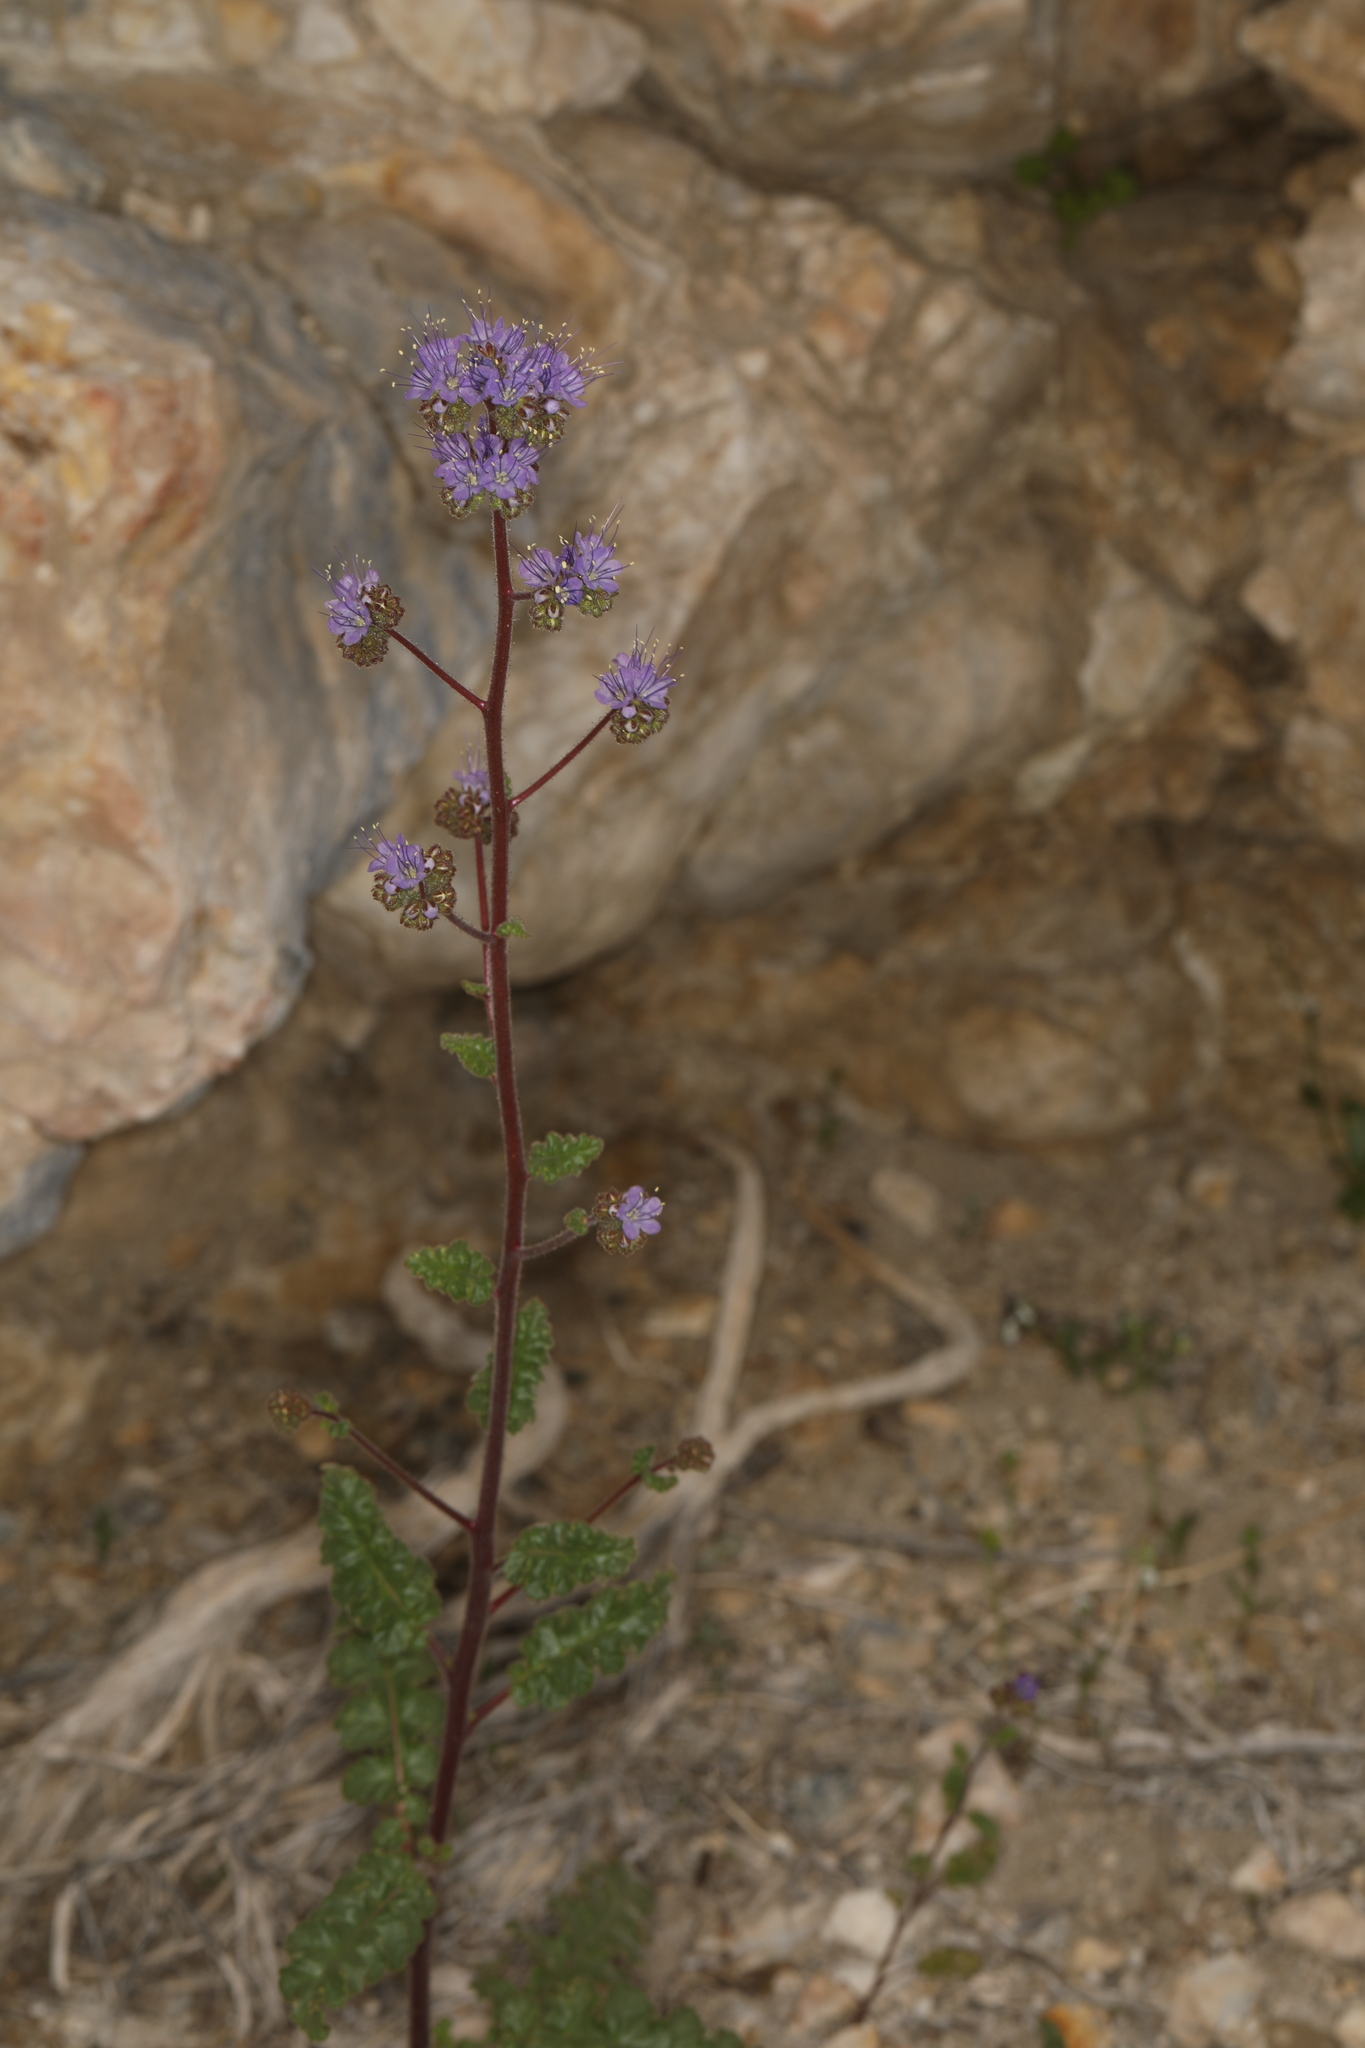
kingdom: Plantae
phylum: Tracheophyta
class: Magnoliopsida
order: Boraginales
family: Hydrophyllaceae
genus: Phacelia
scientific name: Phacelia crenulata
